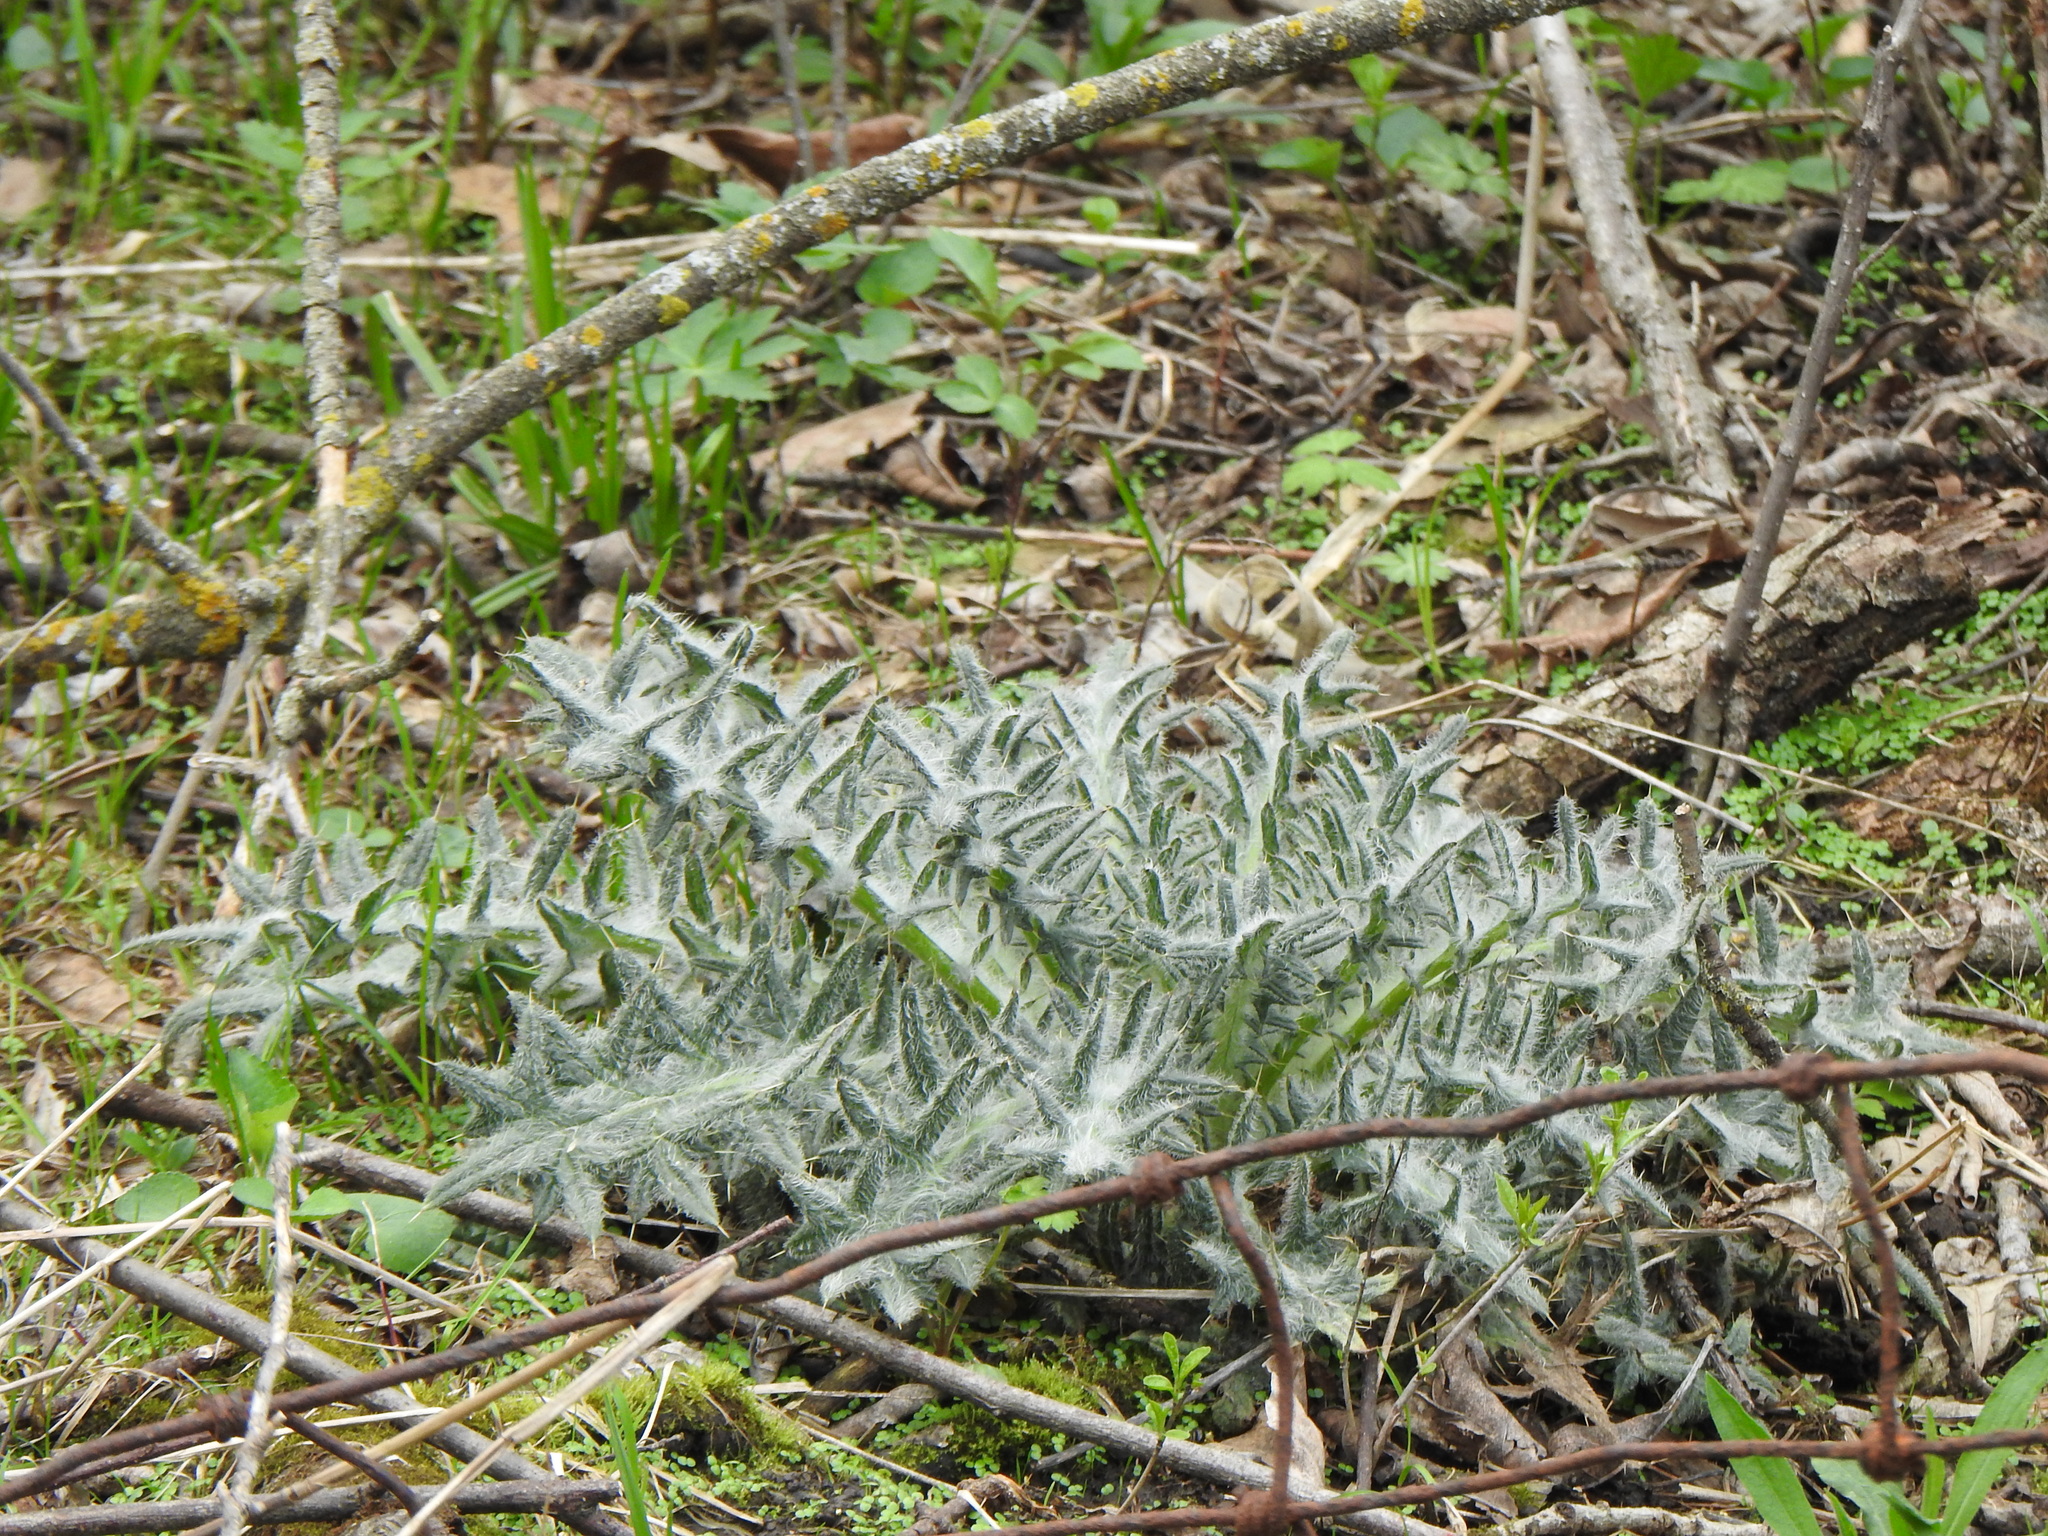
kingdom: Plantae
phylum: Tracheophyta
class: Magnoliopsida
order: Asterales
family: Asteraceae
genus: Cirsium
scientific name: Cirsium vulgare
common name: Bull thistle
